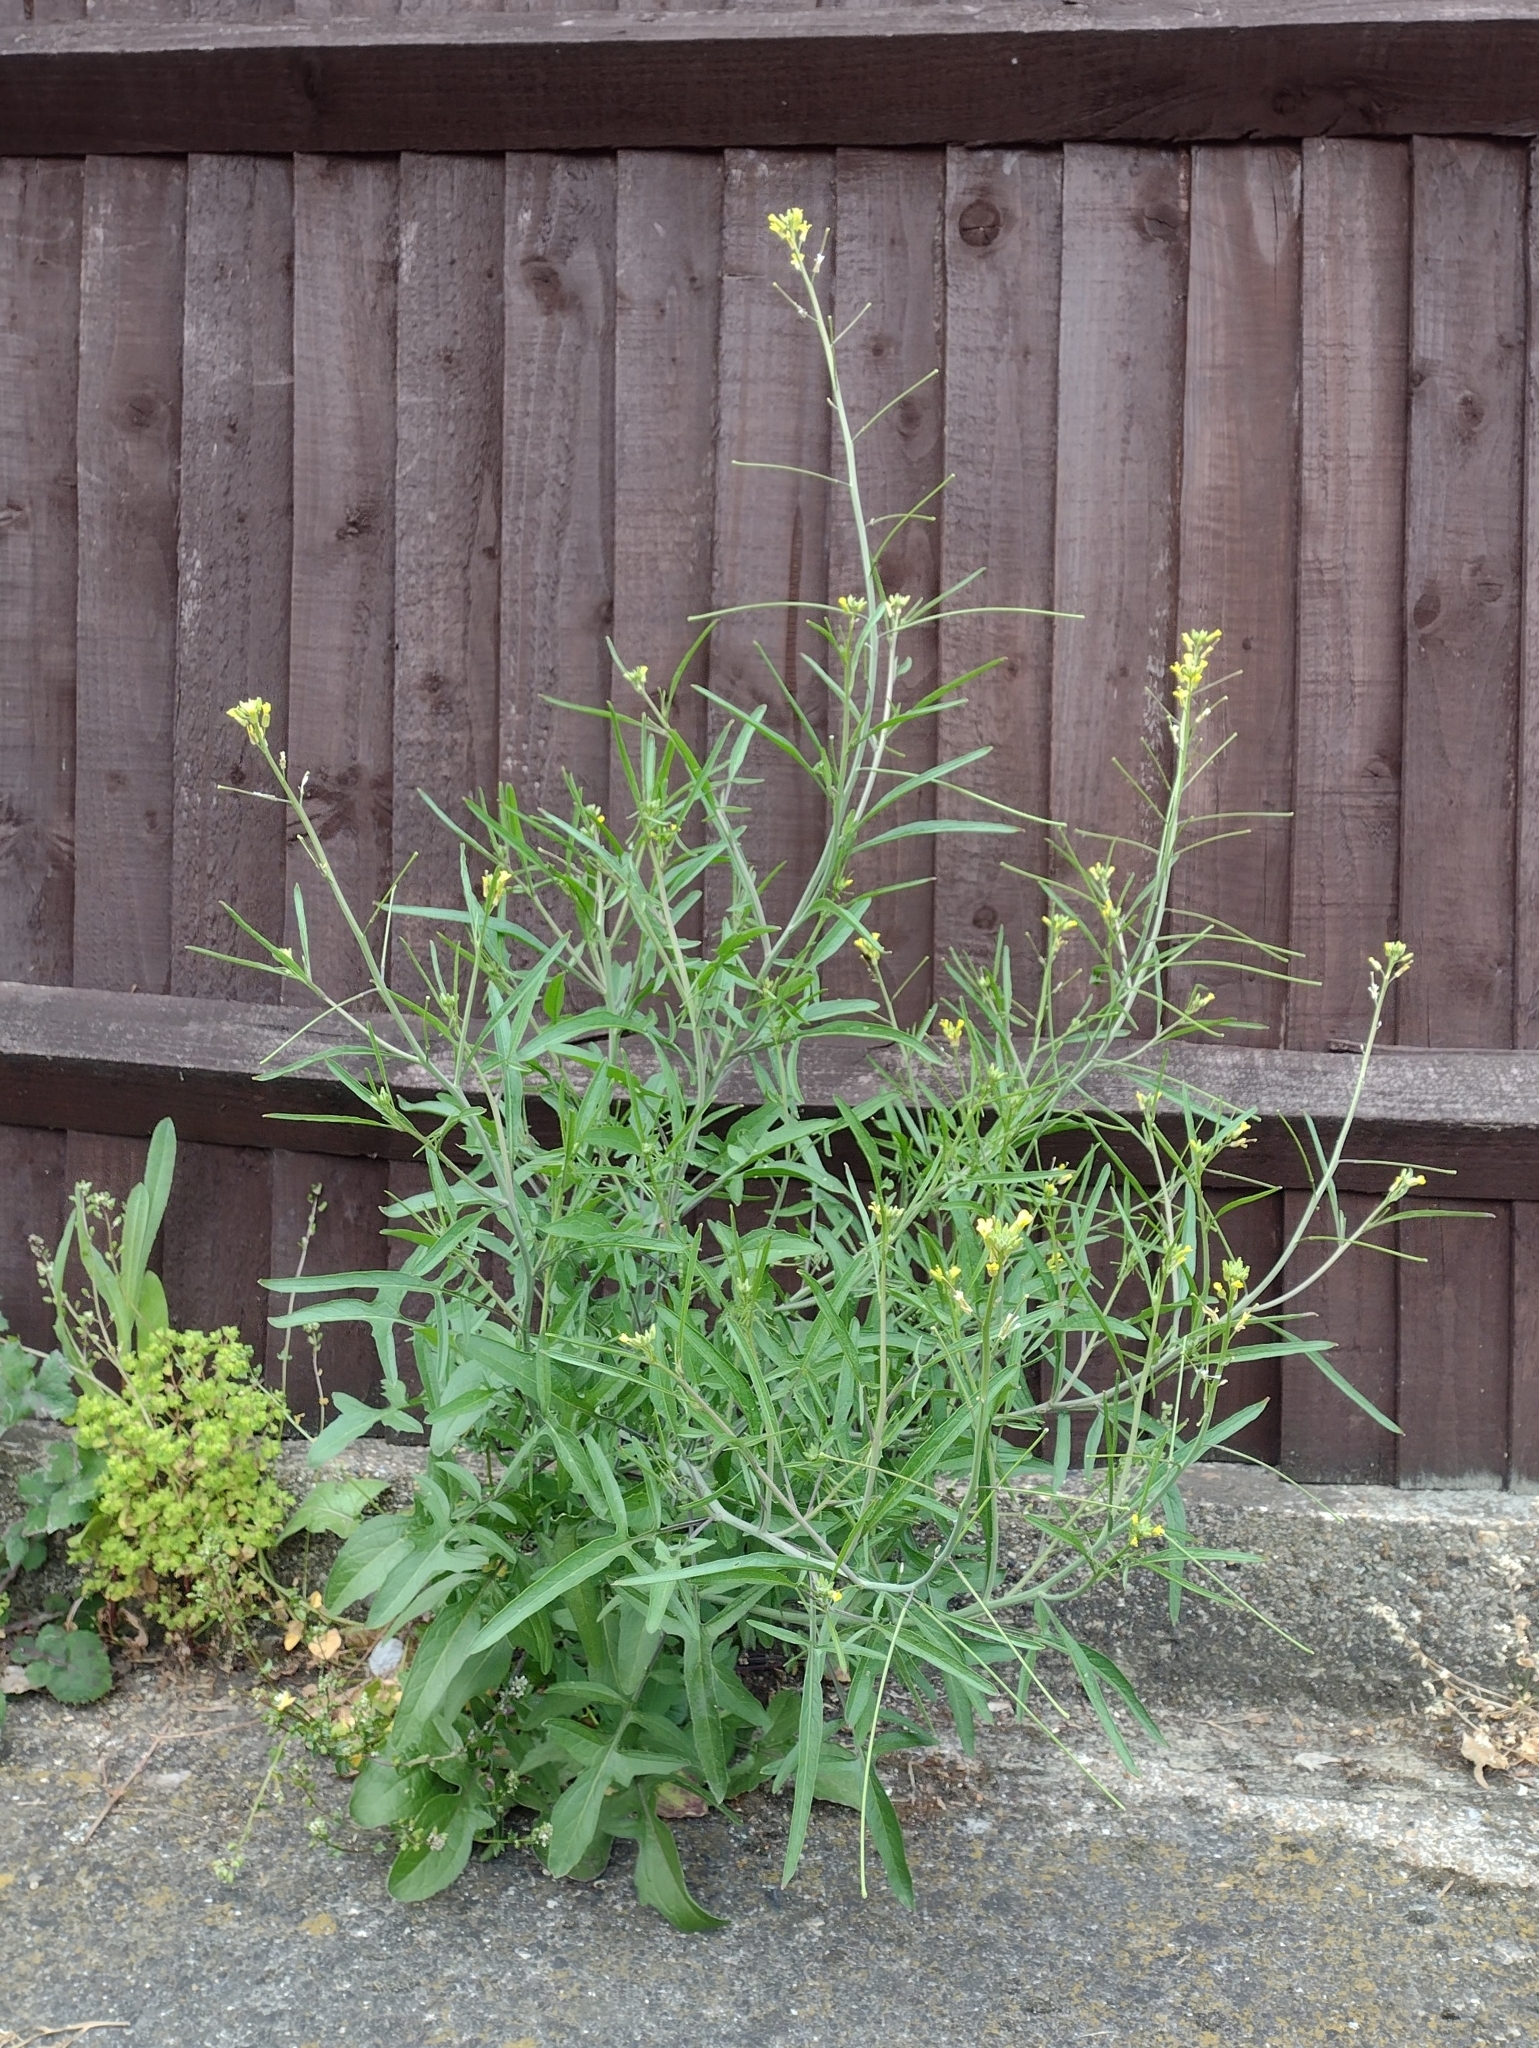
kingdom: Plantae
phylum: Tracheophyta
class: Magnoliopsida
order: Brassicales
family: Brassicaceae
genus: Sisymbrium
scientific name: Sisymbrium orientale
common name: Eastern rocket
